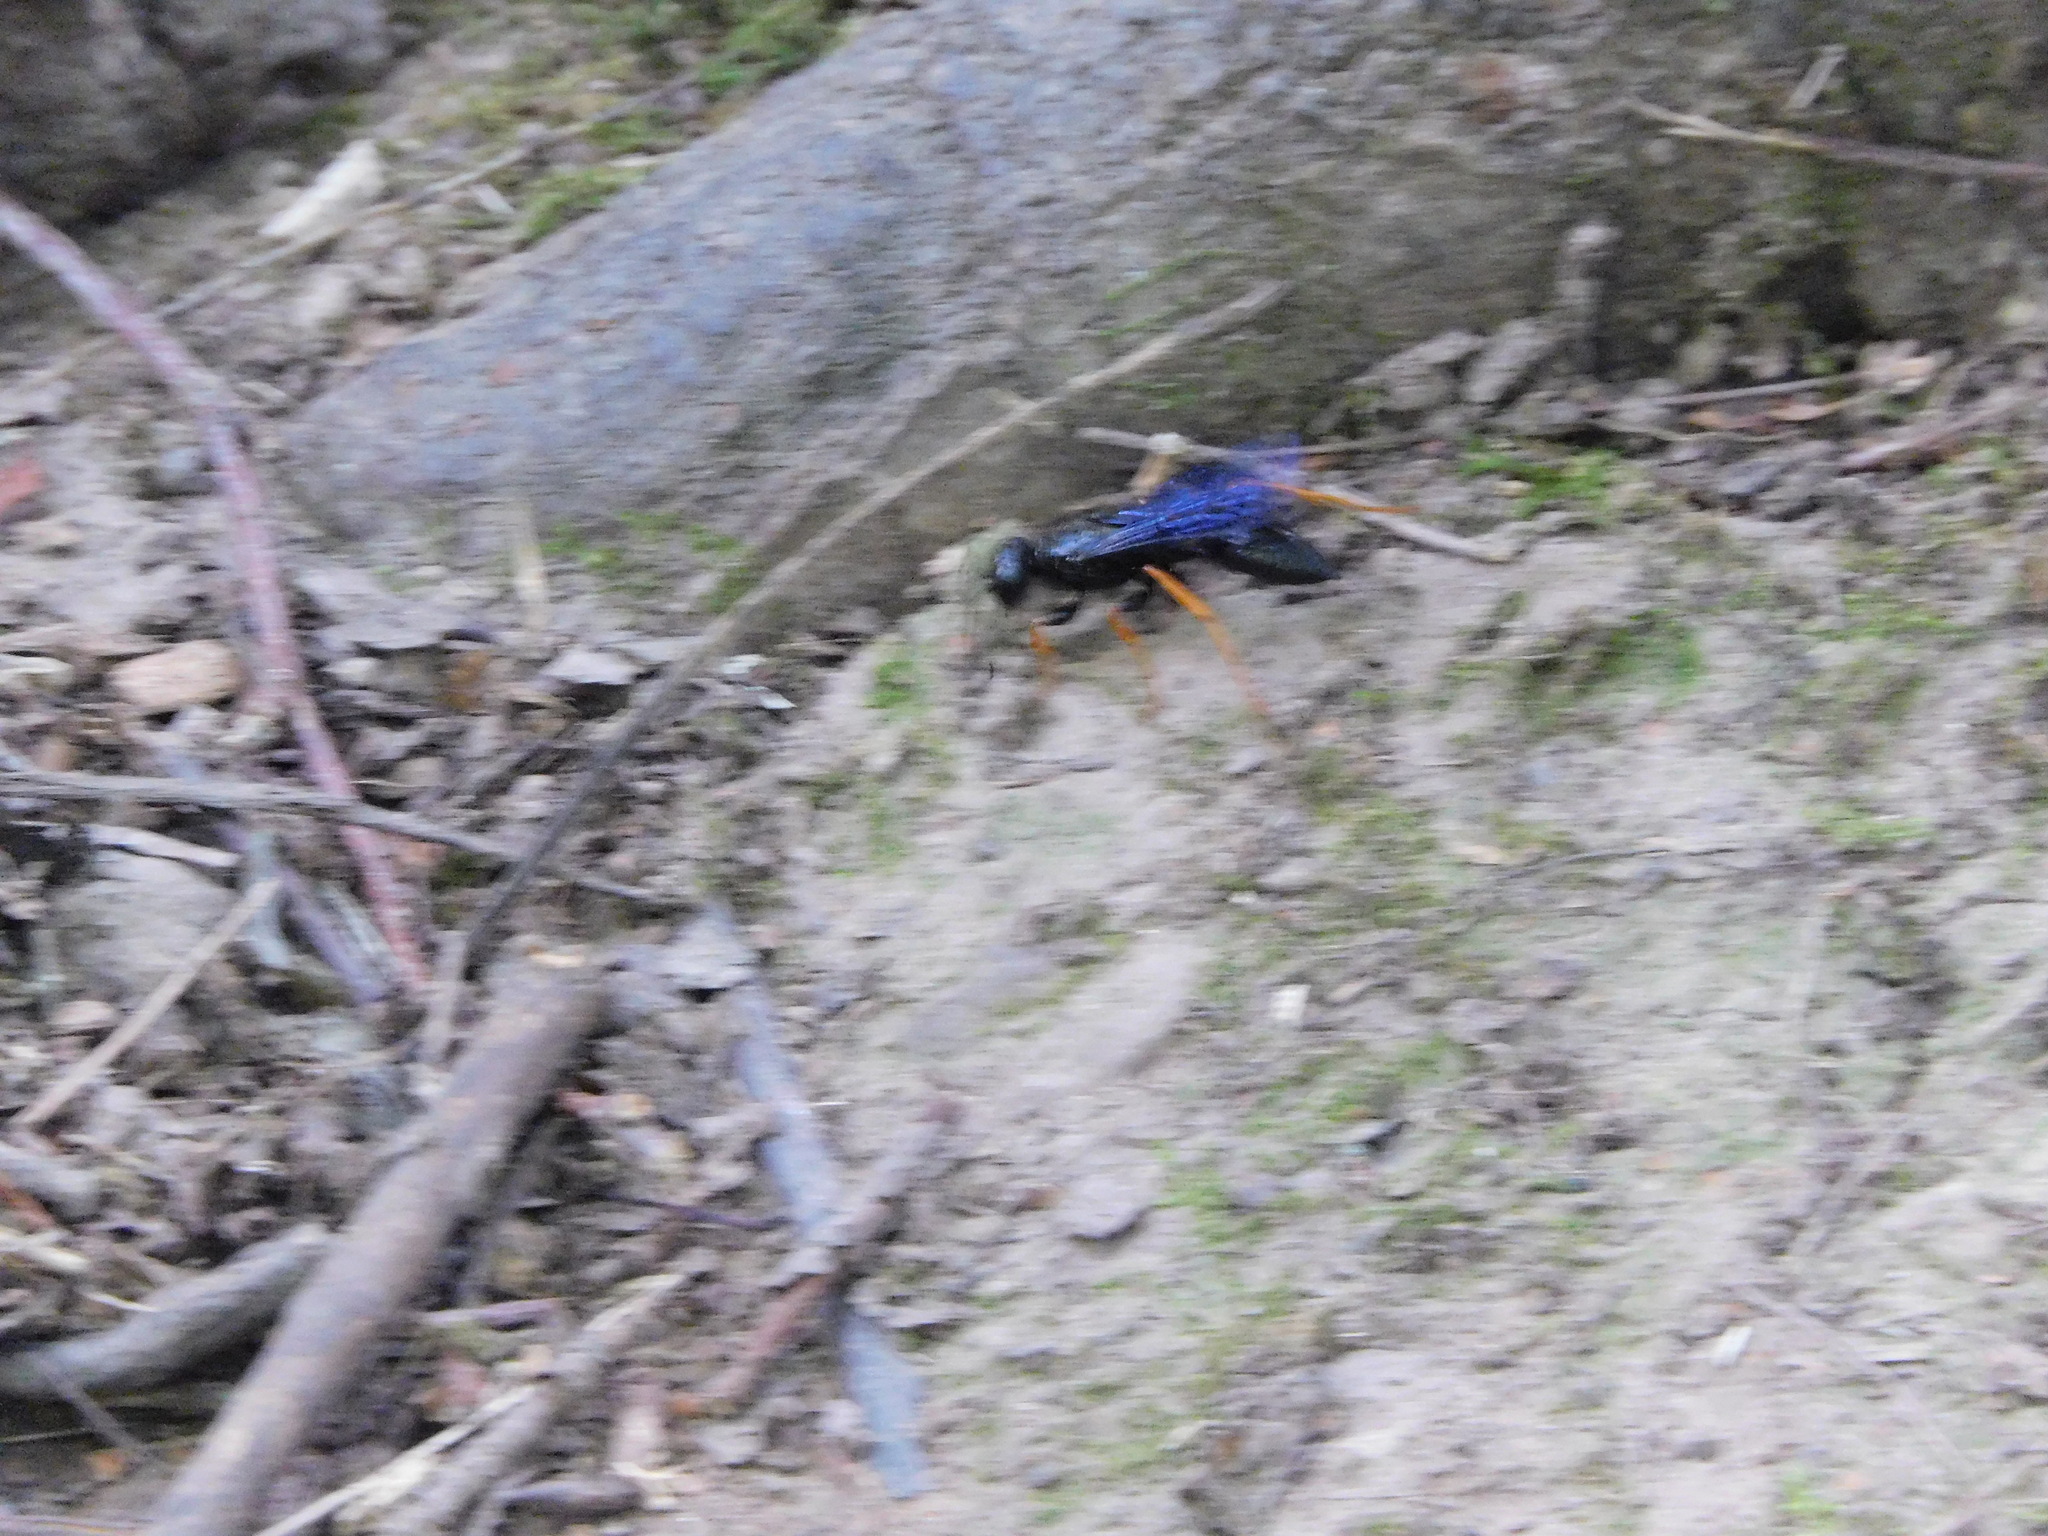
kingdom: Animalia
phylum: Arthropoda
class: Insecta
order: Hymenoptera
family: Sphecidae
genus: Podium
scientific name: Podium luctuosum
